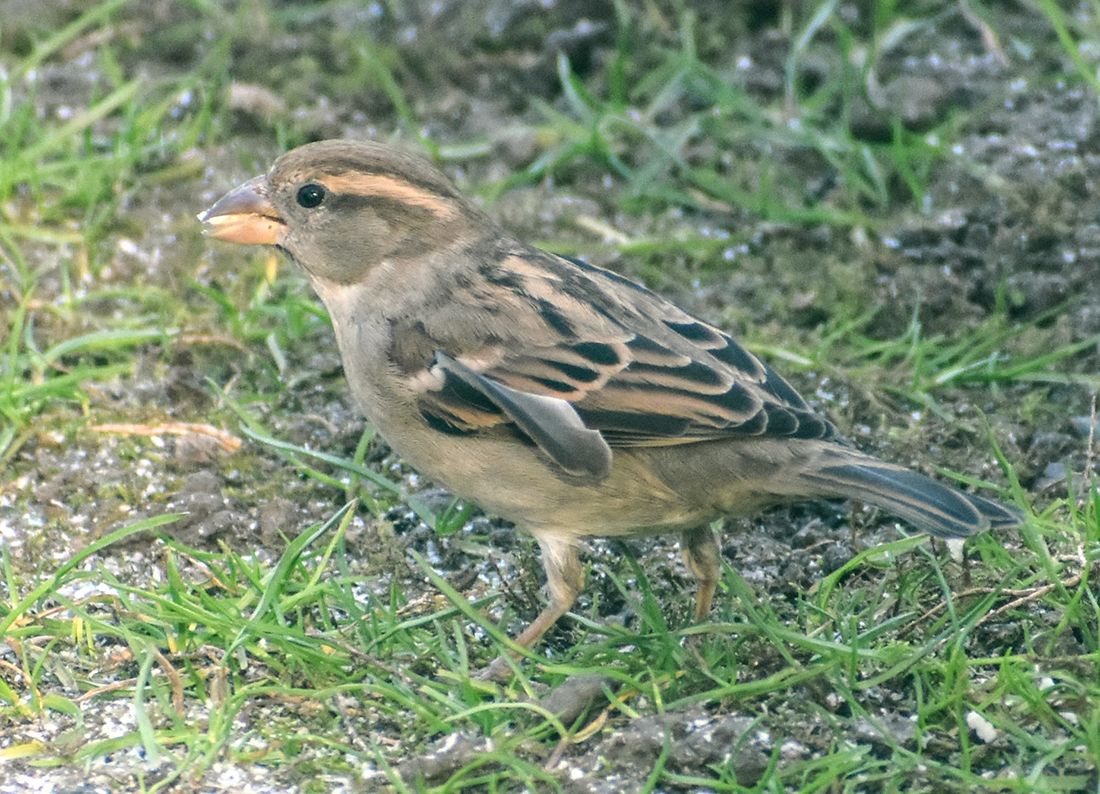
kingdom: Animalia
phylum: Chordata
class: Aves
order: Passeriformes
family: Passeridae
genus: Passer
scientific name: Passer italiae
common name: Italian sparrow
